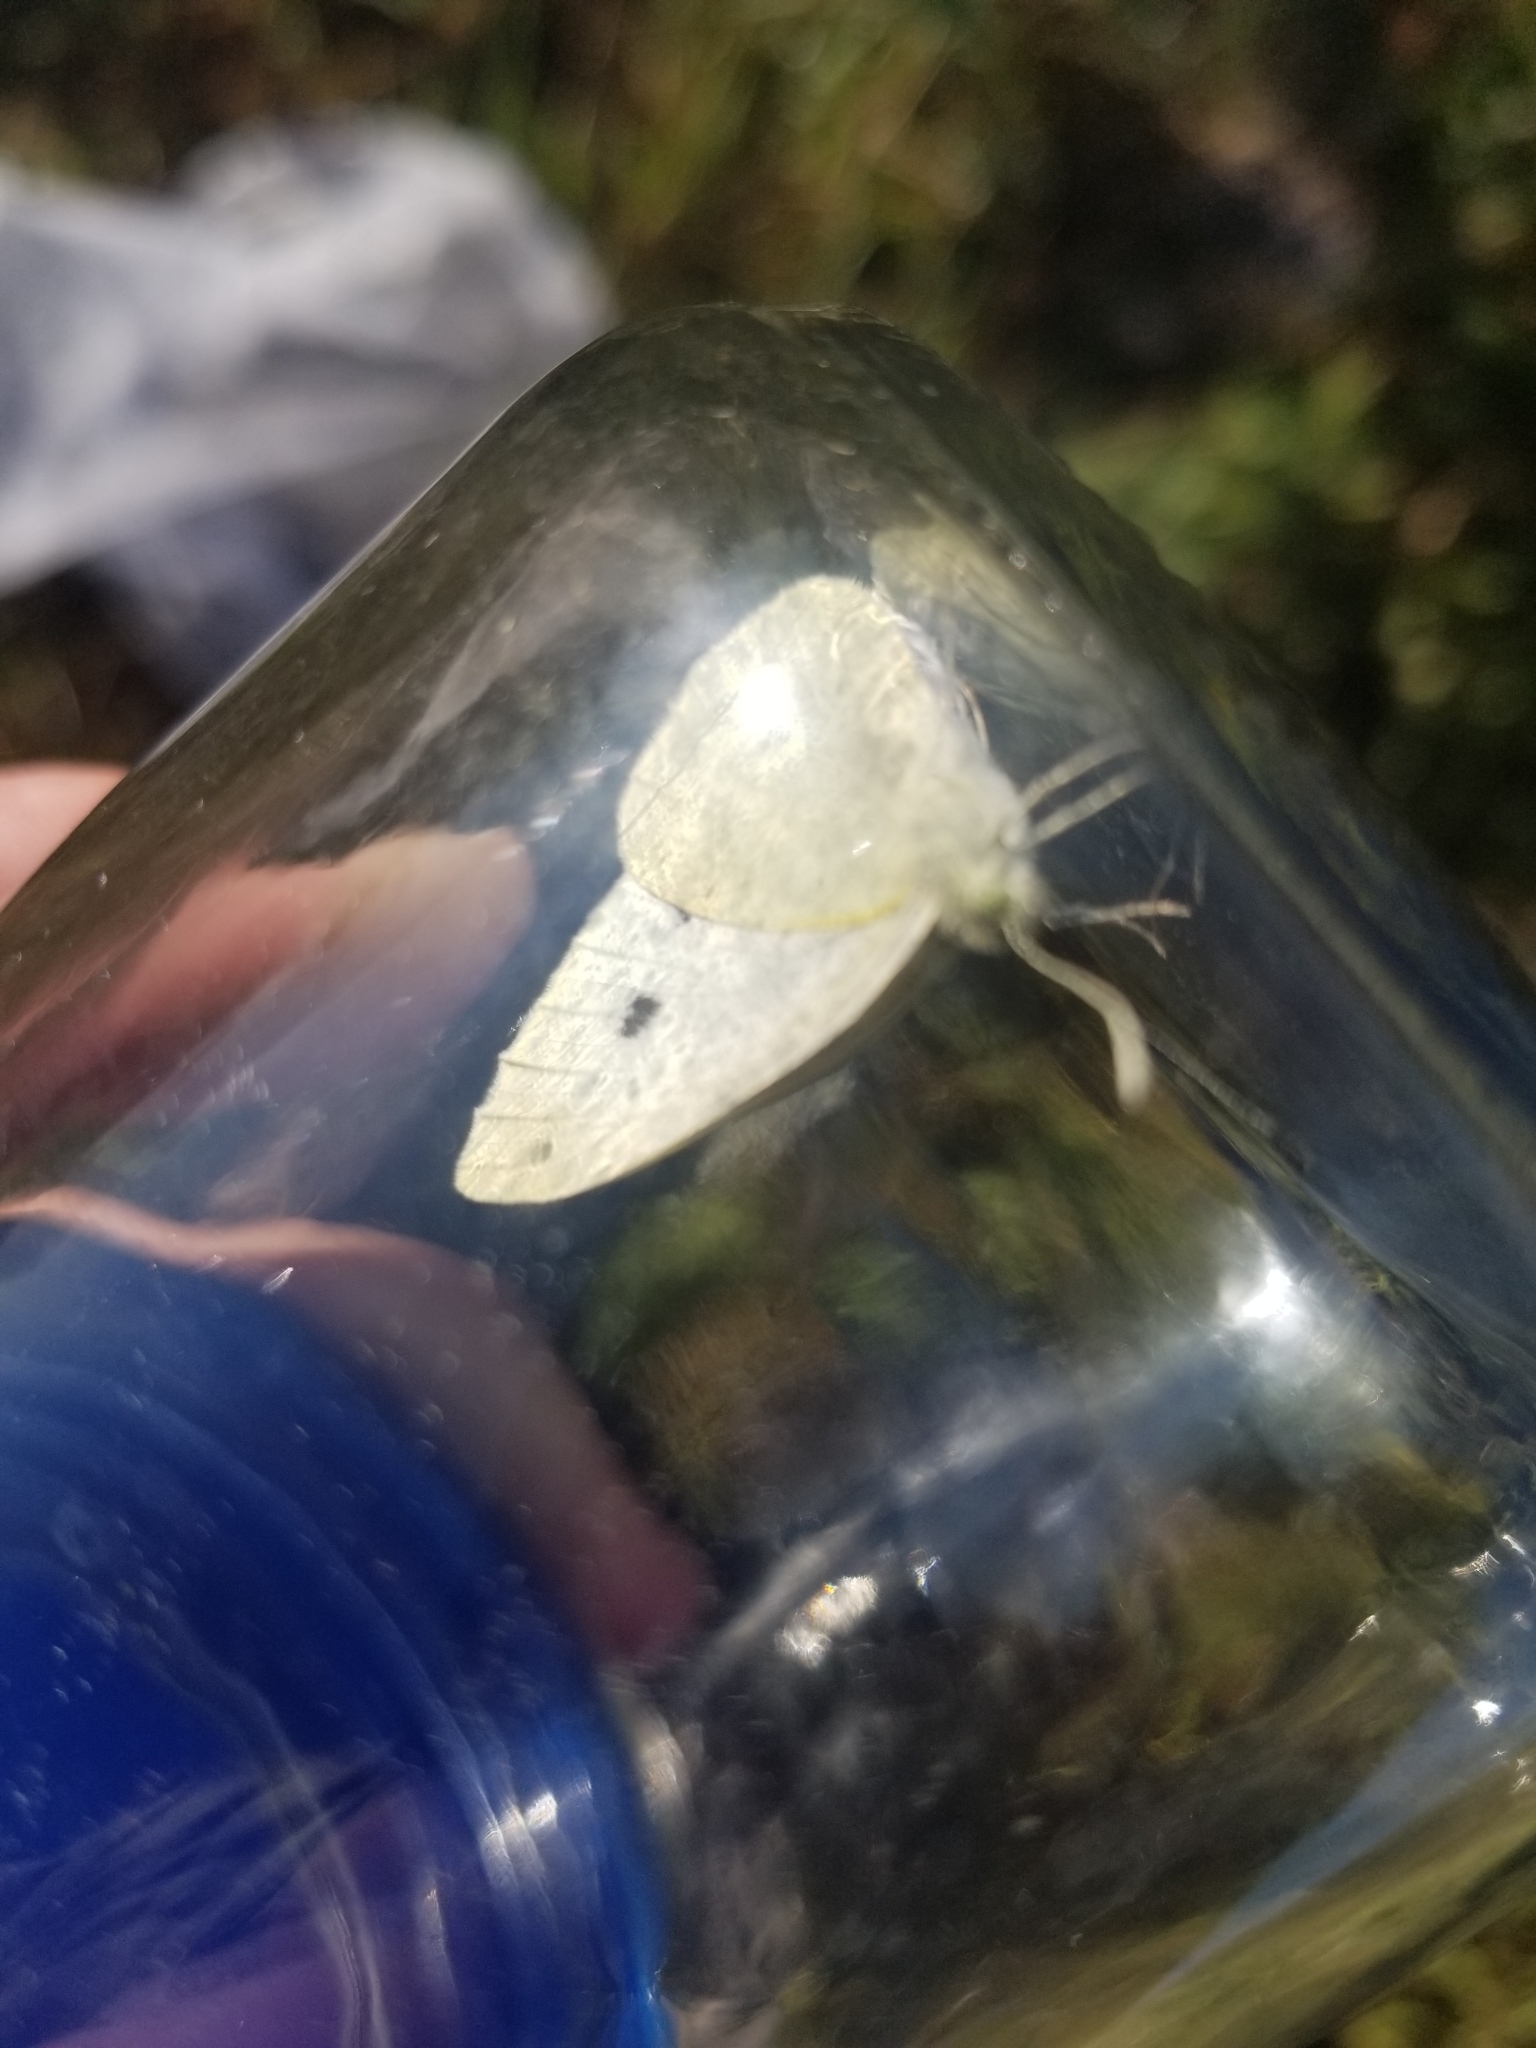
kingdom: Animalia
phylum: Arthropoda
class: Insecta
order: Lepidoptera
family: Pieridae
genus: Pieris
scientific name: Pieris rapae
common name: Small white
